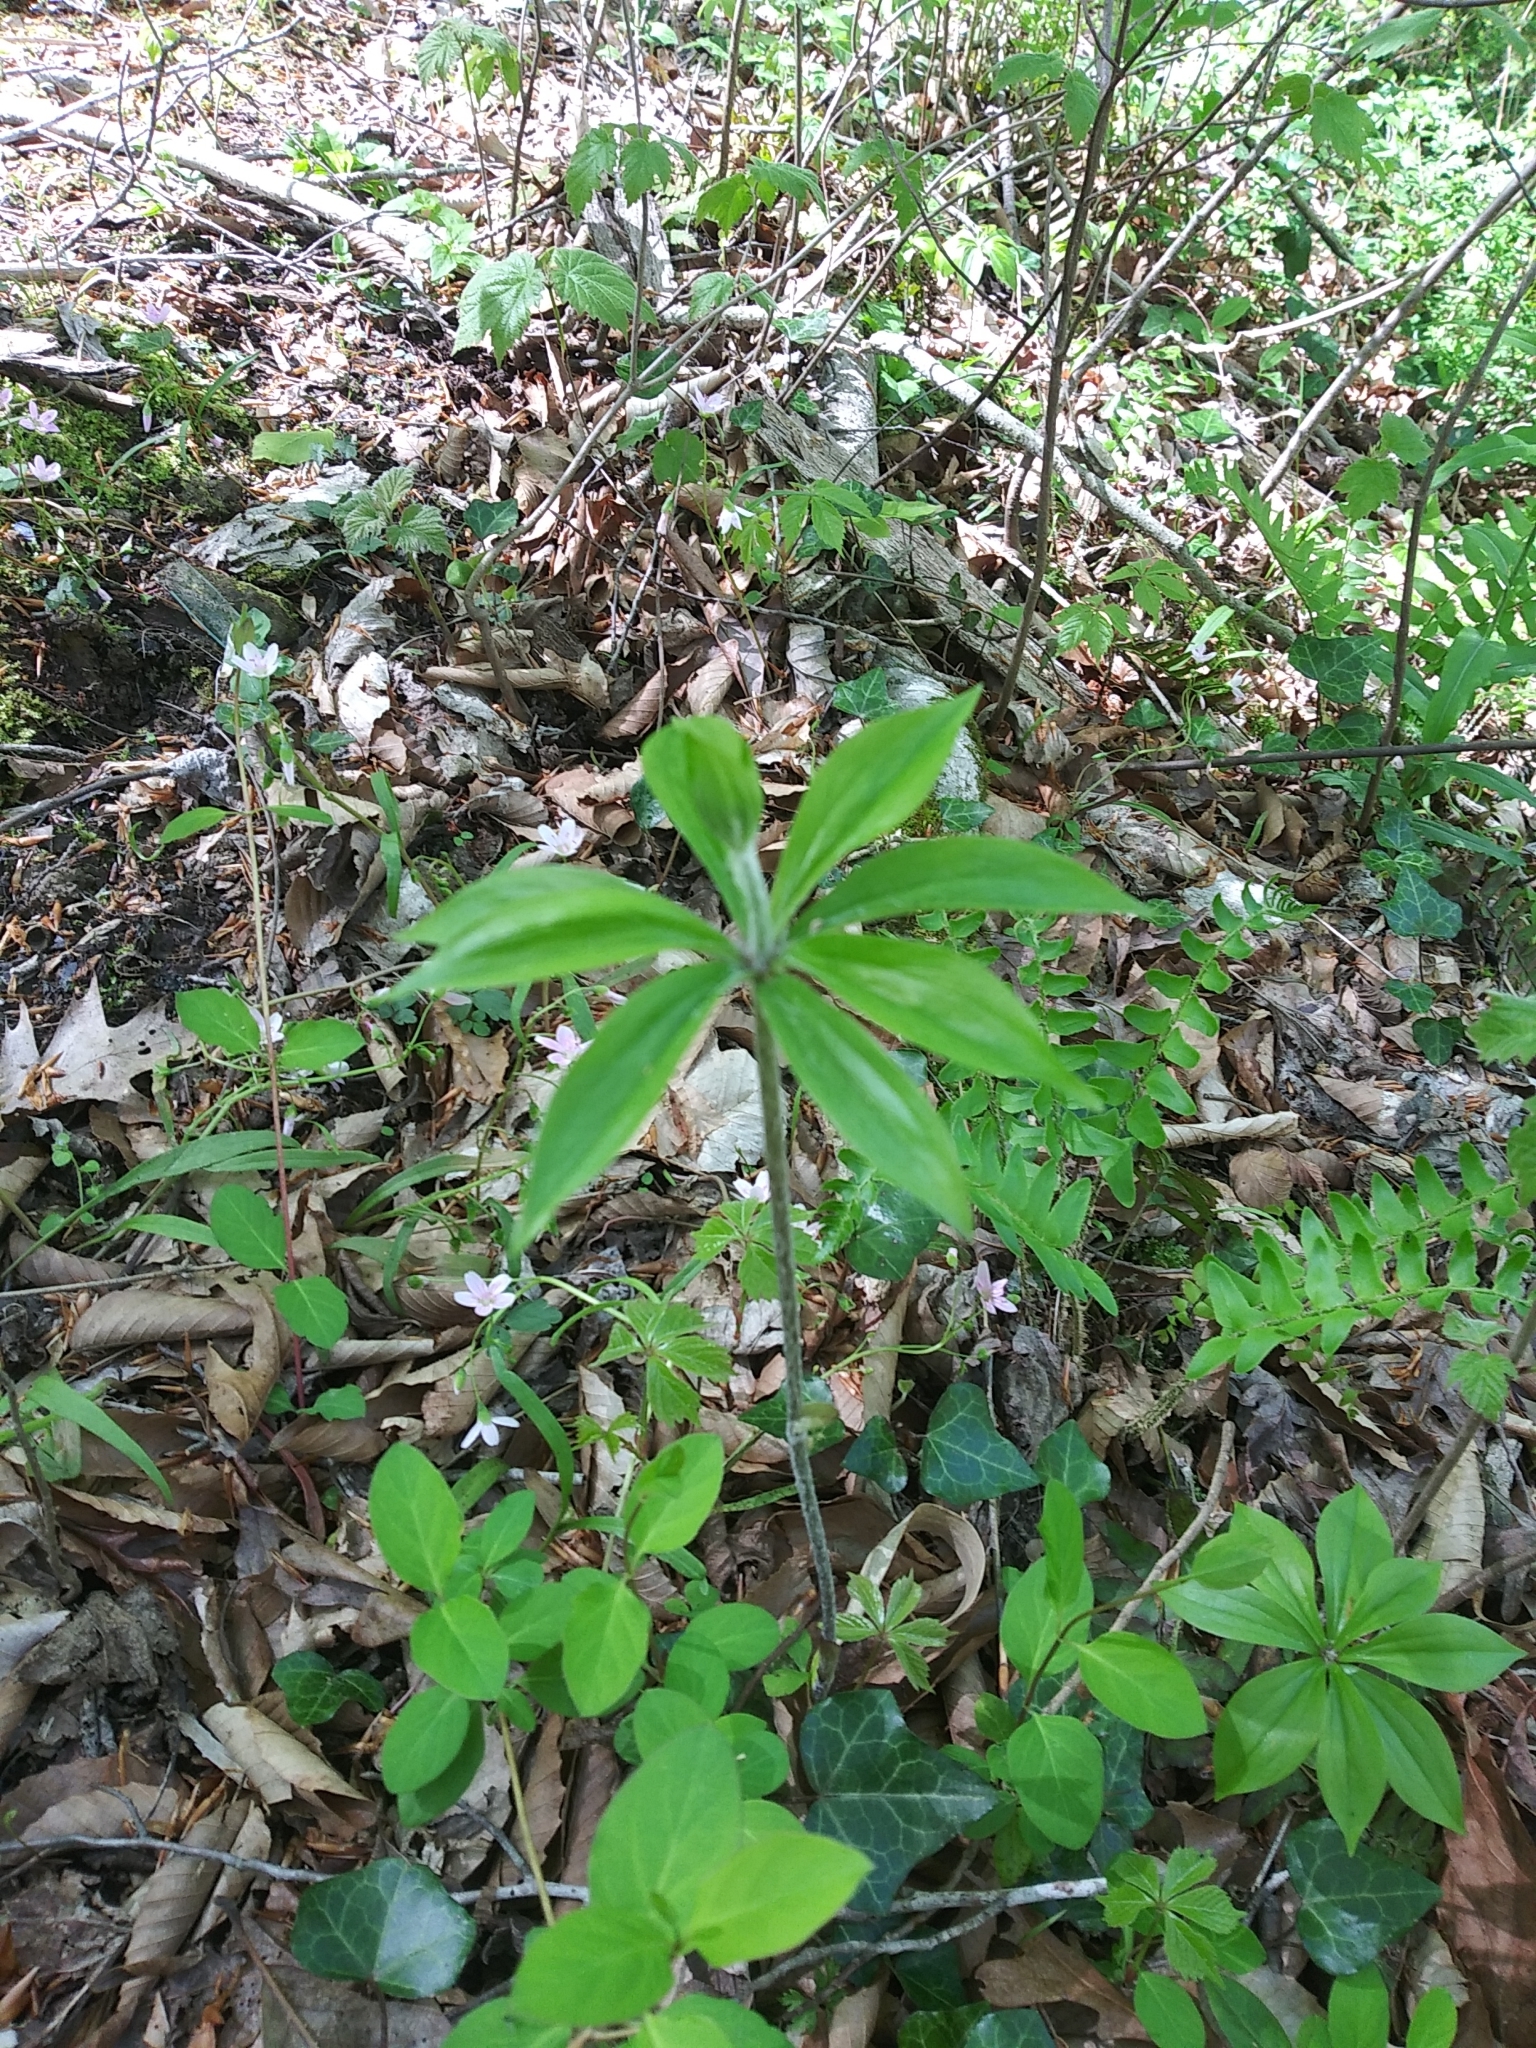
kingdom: Plantae
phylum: Tracheophyta
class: Liliopsida
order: Liliales
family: Liliaceae
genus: Medeola
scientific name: Medeola virginiana
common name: Indian cucumber-root
